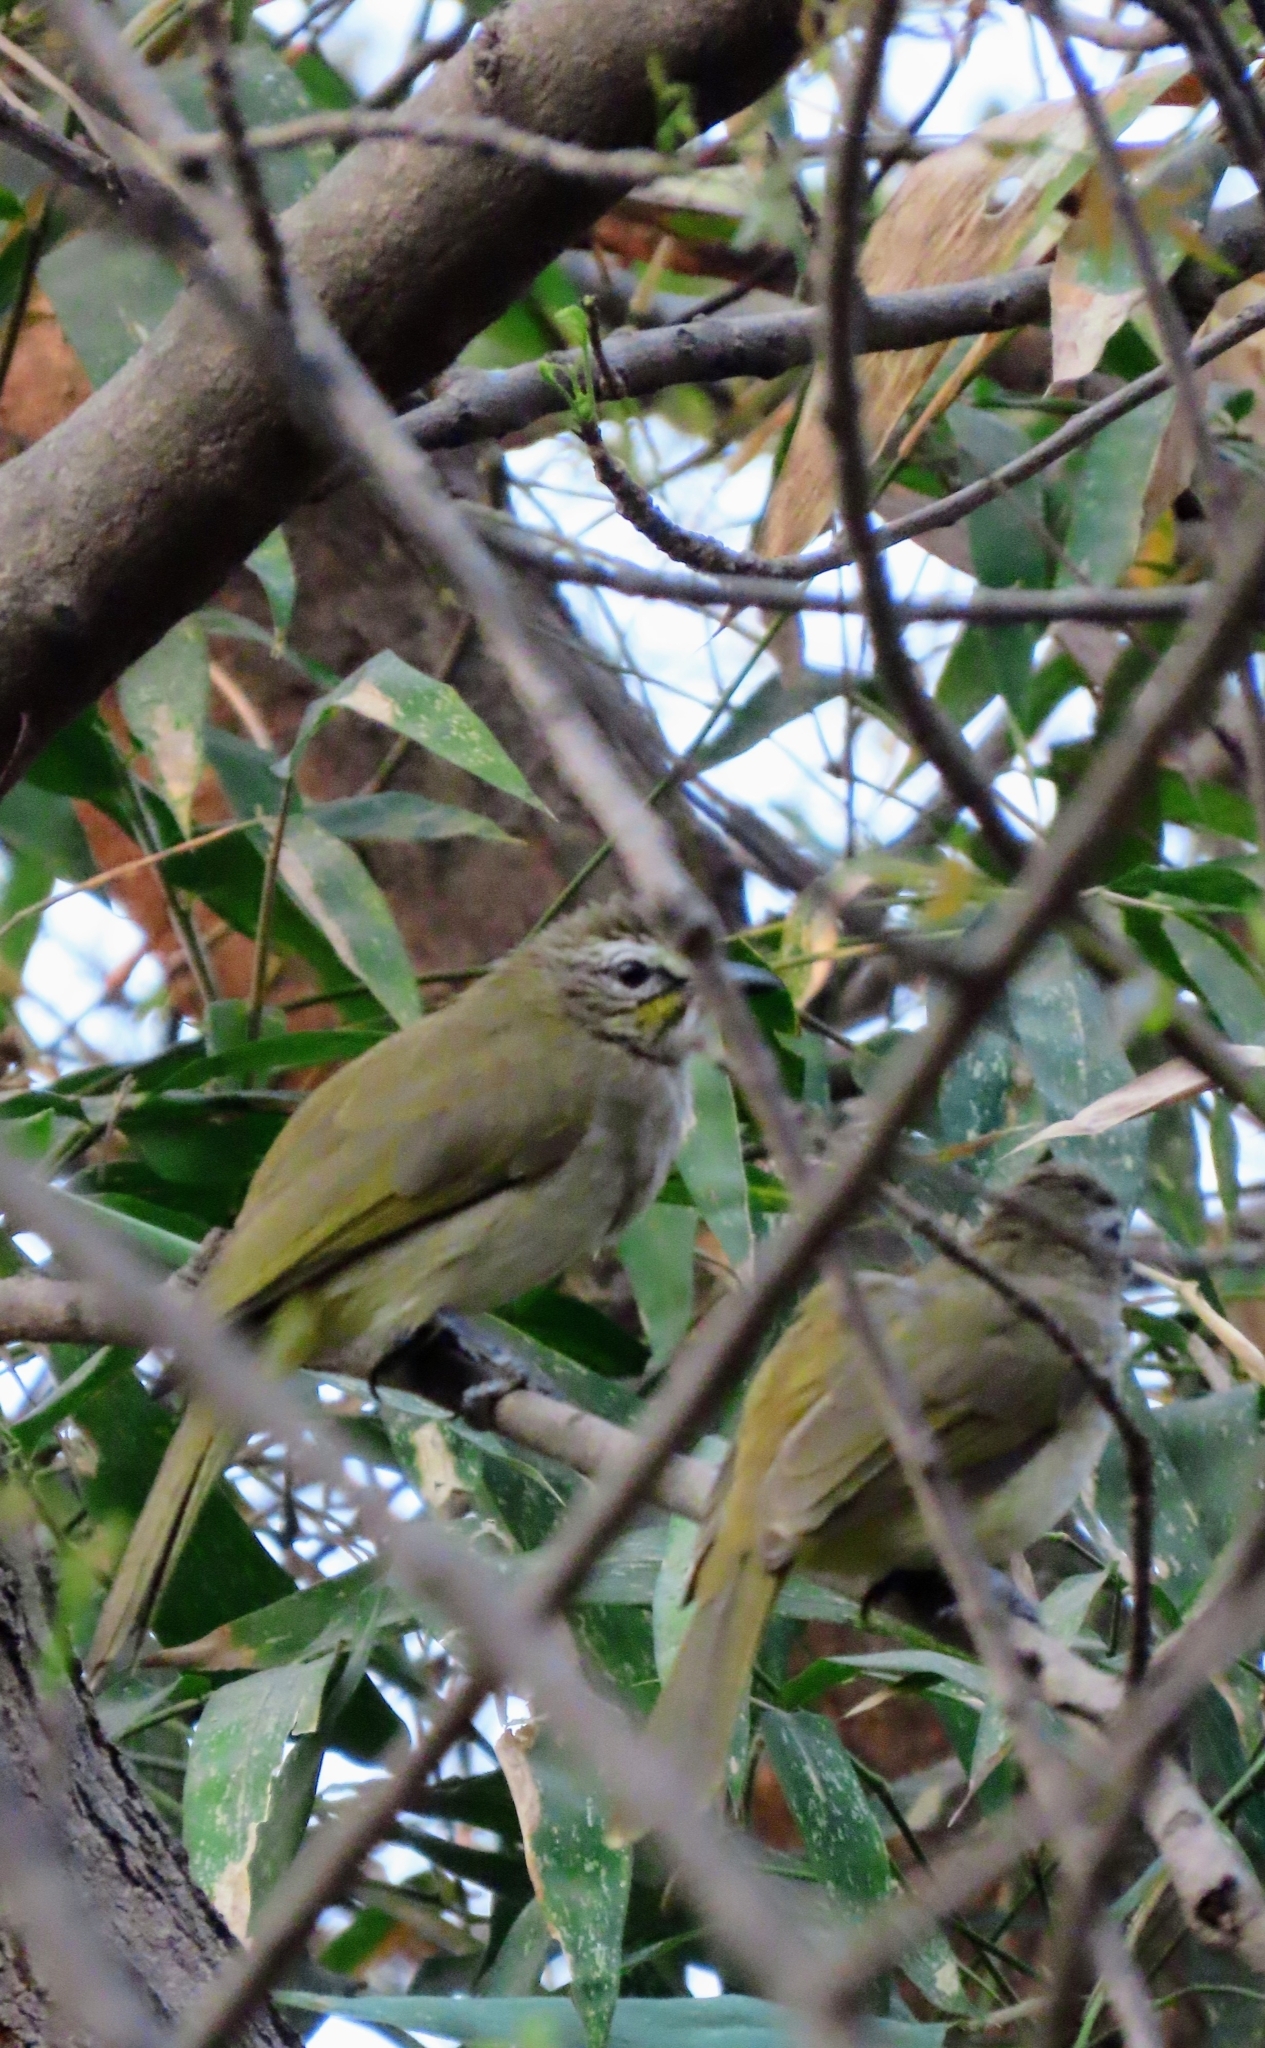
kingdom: Animalia
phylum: Chordata
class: Aves
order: Passeriformes
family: Pycnonotidae
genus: Pycnonotus
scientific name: Pycnonotus luteolus
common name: White-browed bulbul
